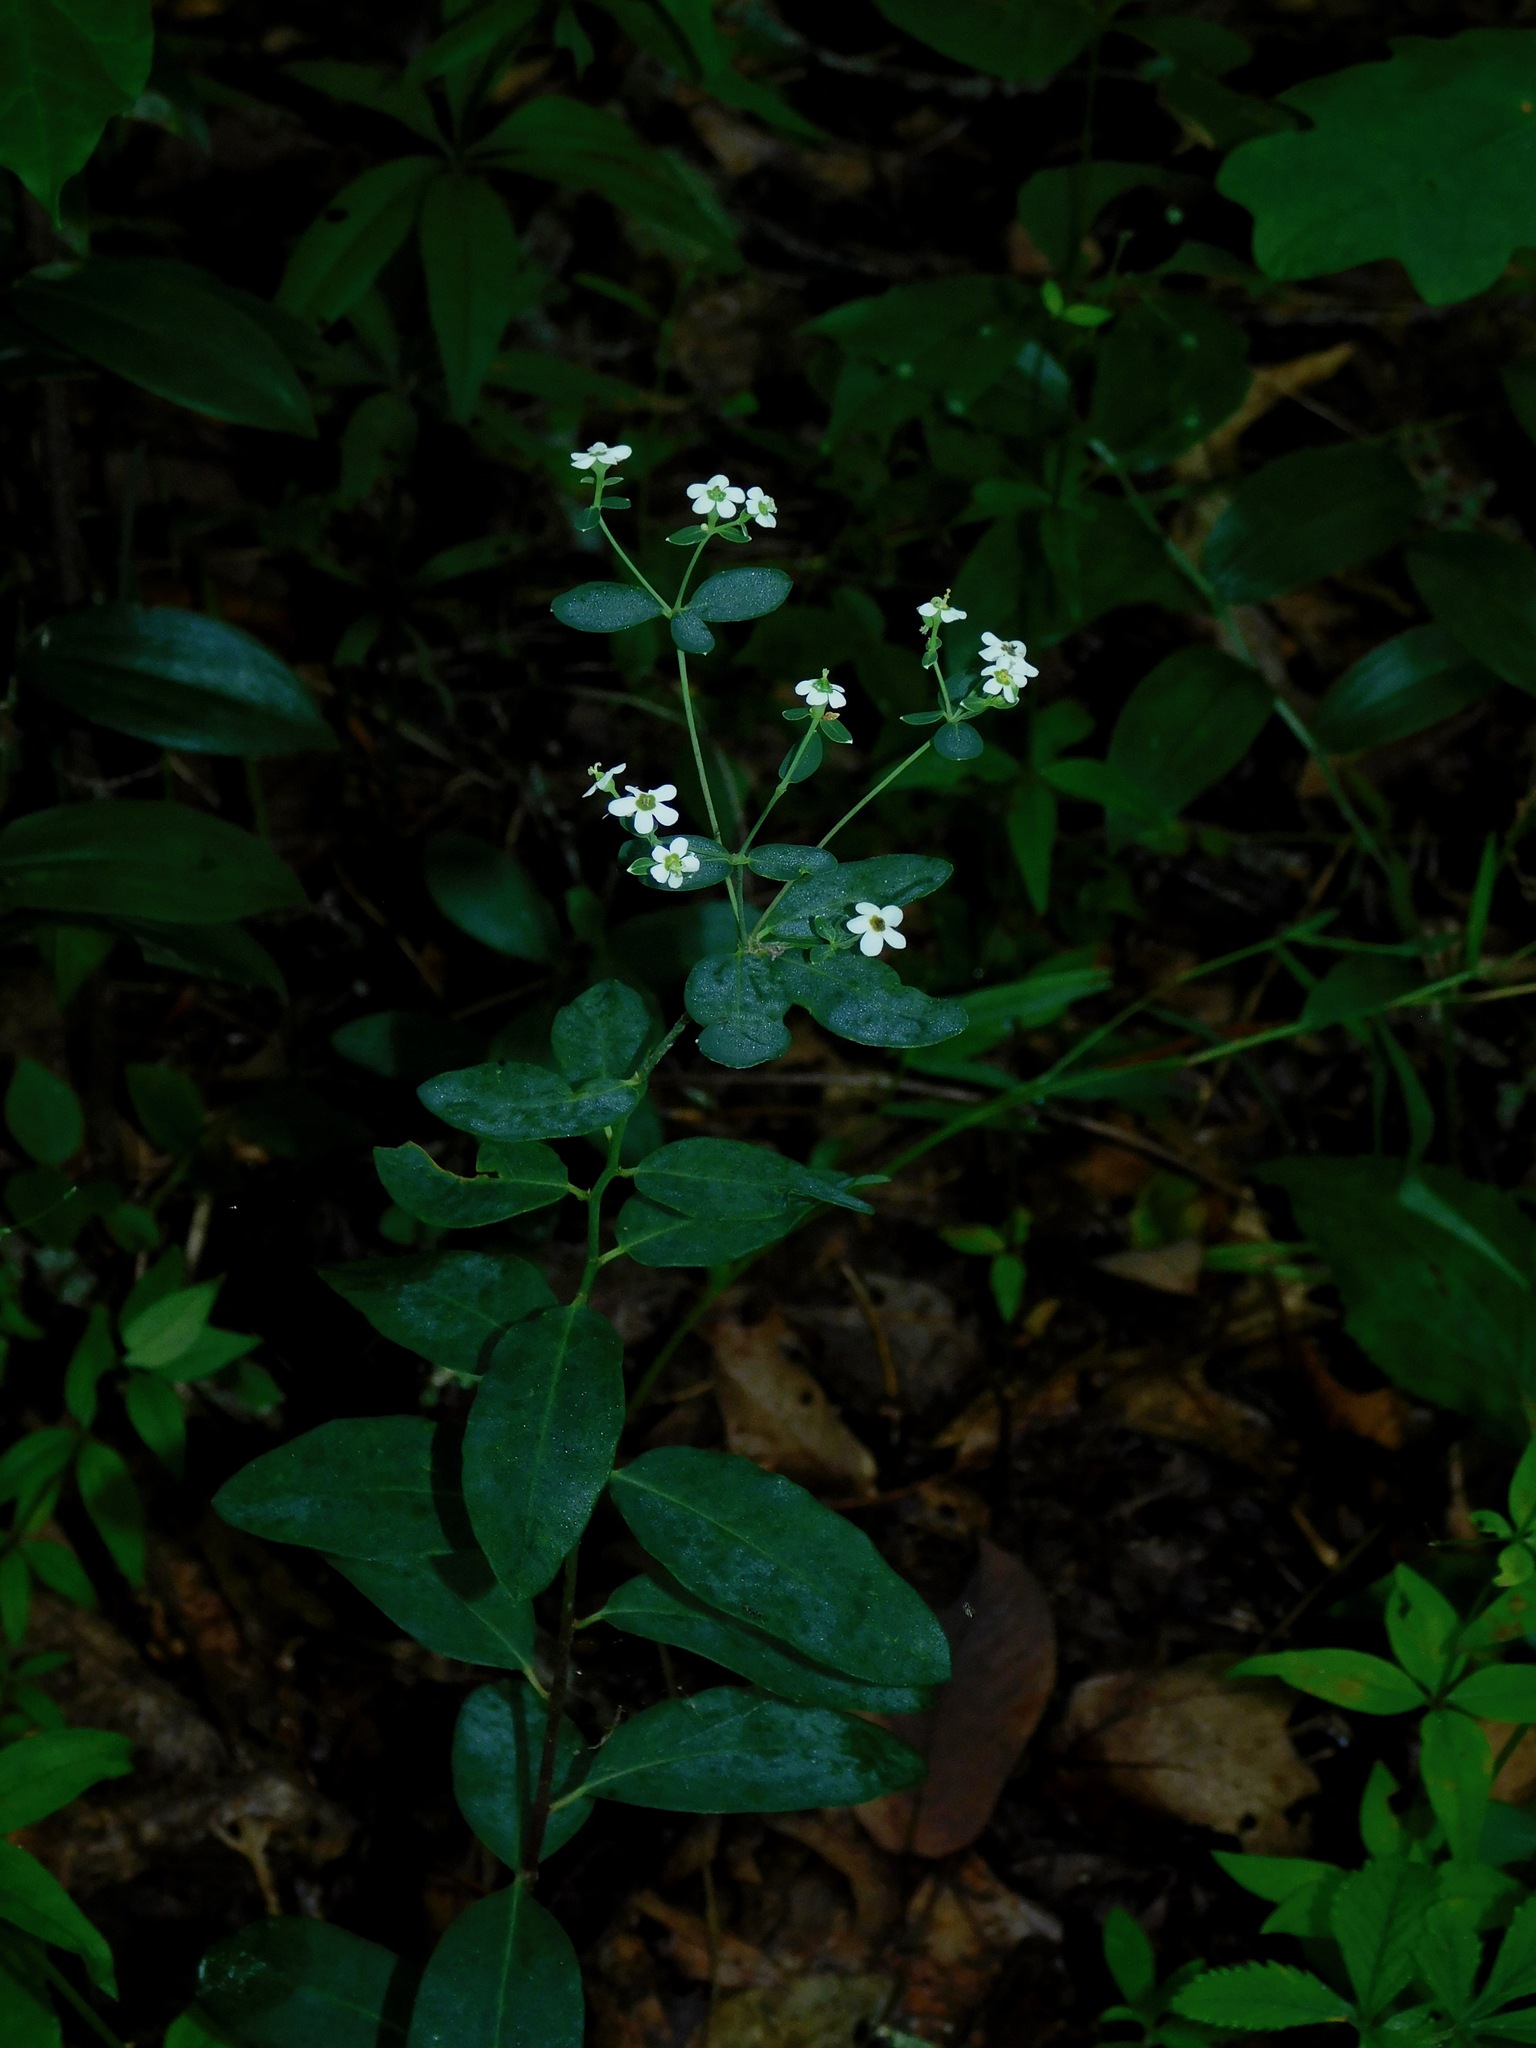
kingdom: Plantae
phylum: Tracheophyta
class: Magnoliopsida
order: Malpighiales
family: Euphorbiaceae
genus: Euphorbia
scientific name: Euphorbia corollata
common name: Flowering spurge
